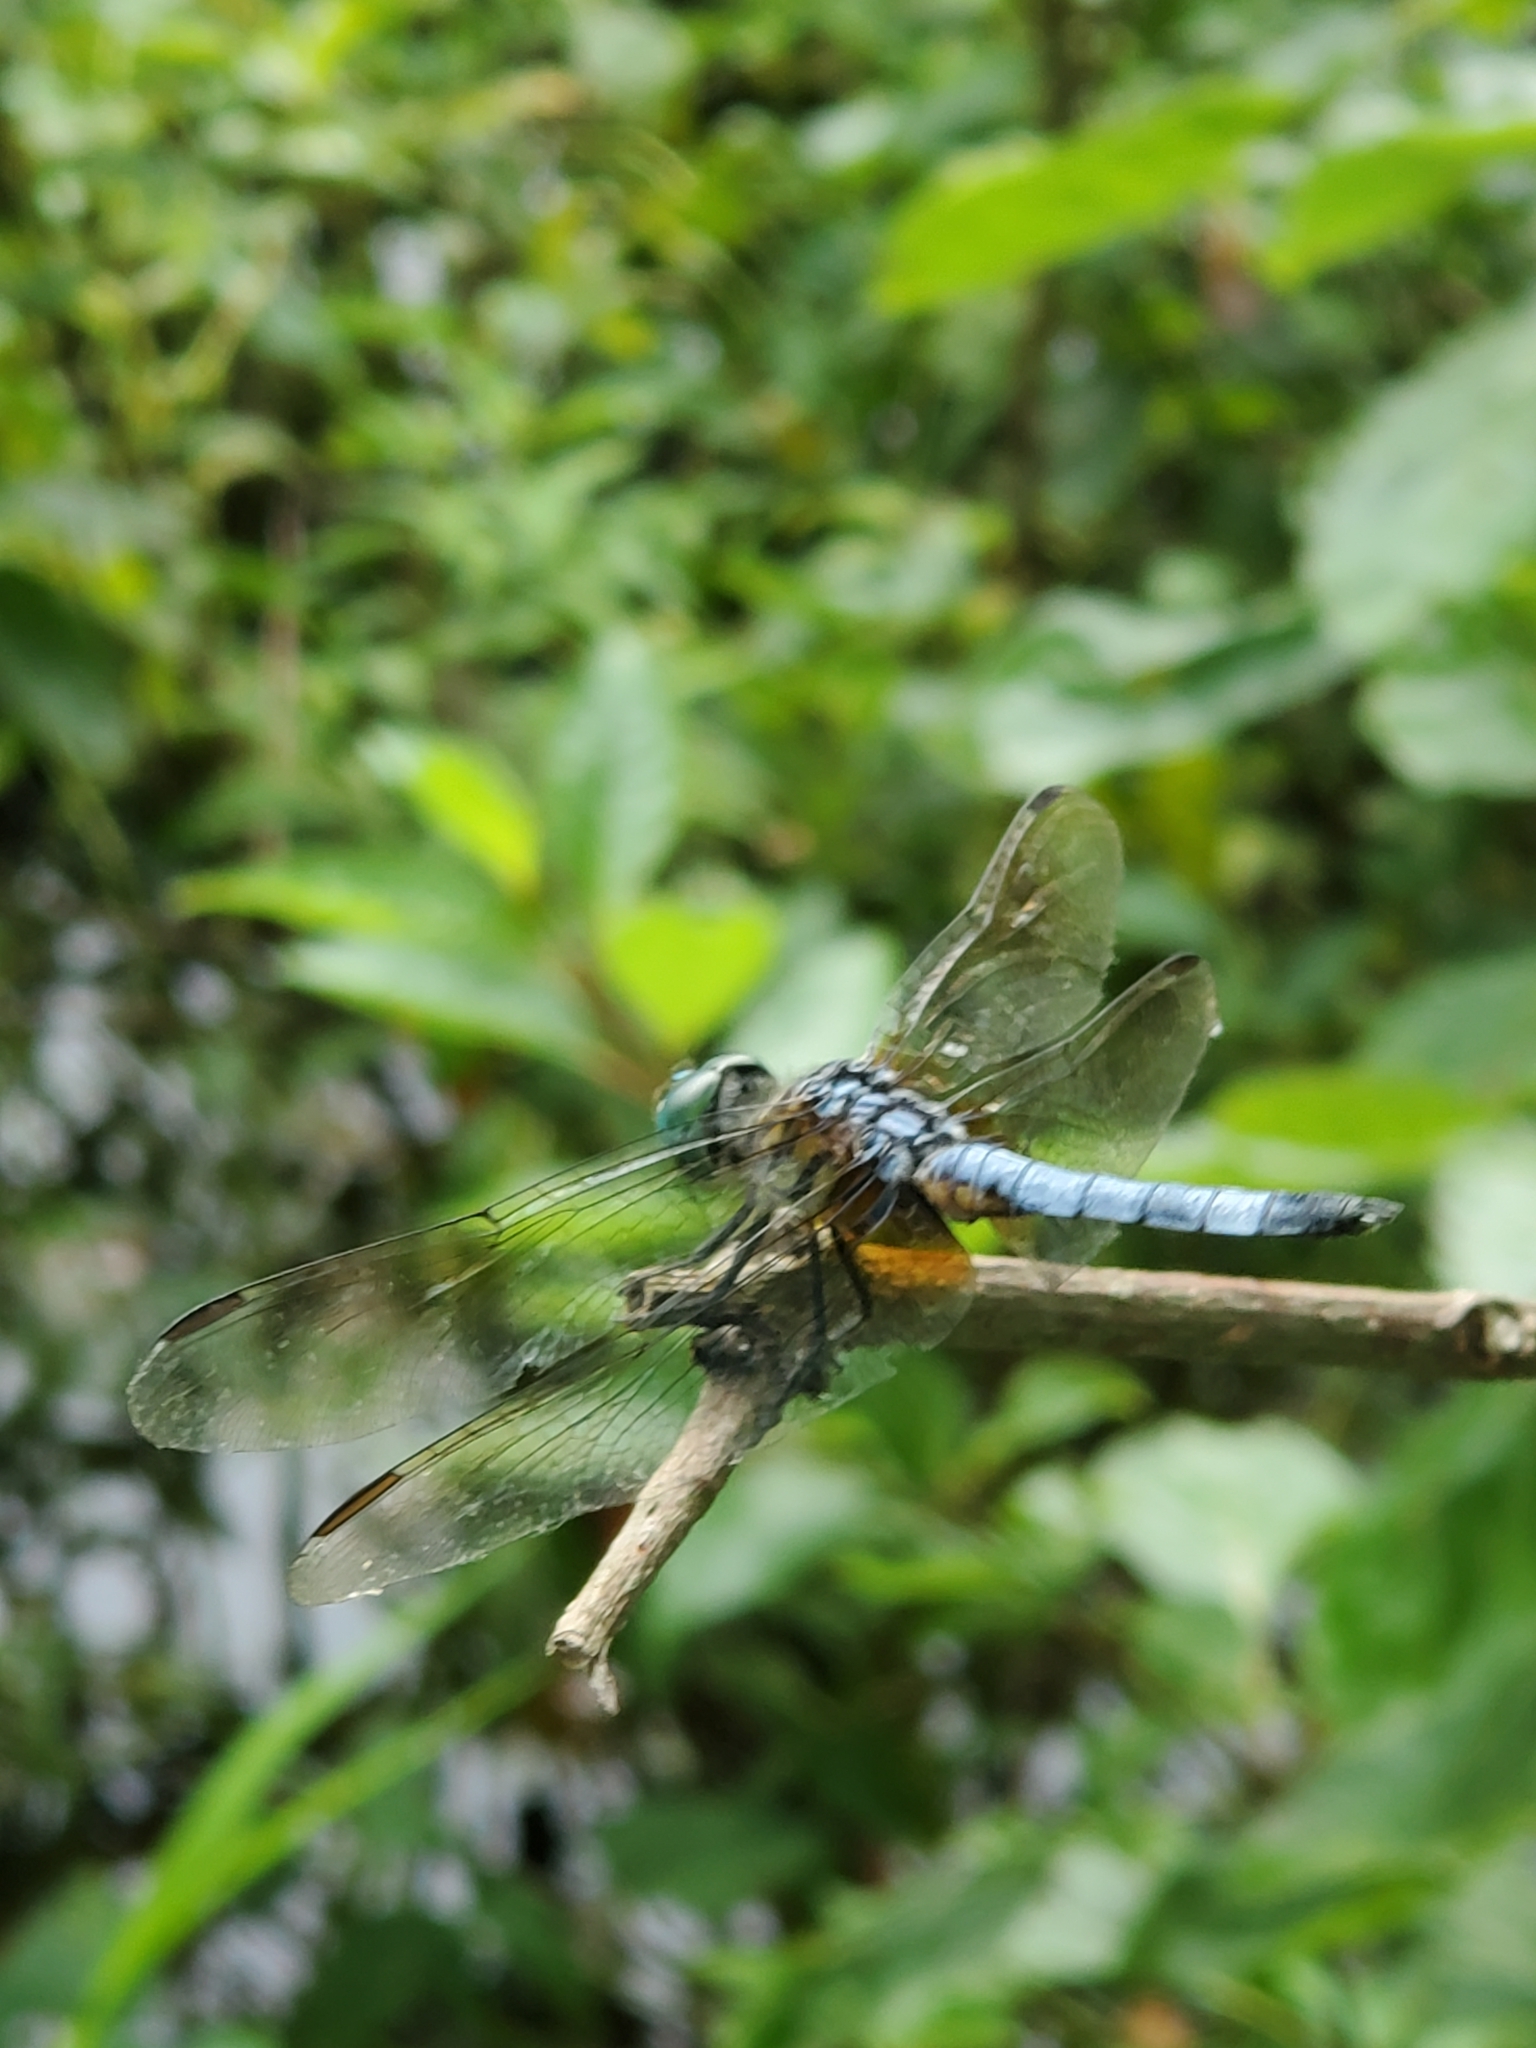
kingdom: Animalia
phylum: Arthropoda
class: Insecta
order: Odonata
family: Libellulidae
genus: Pachydiplax
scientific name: Pachydiplax longipennis
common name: Blue dasher
